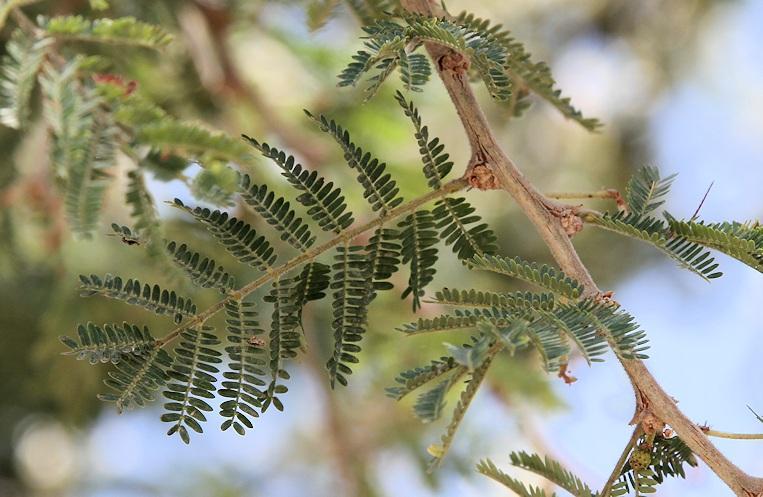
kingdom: Plantae
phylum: Tracheophyta
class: Magnoliopsida
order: Fabales
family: Fabaceae
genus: Vachellia
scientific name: Vachellia gerrardii
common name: Redthorn
